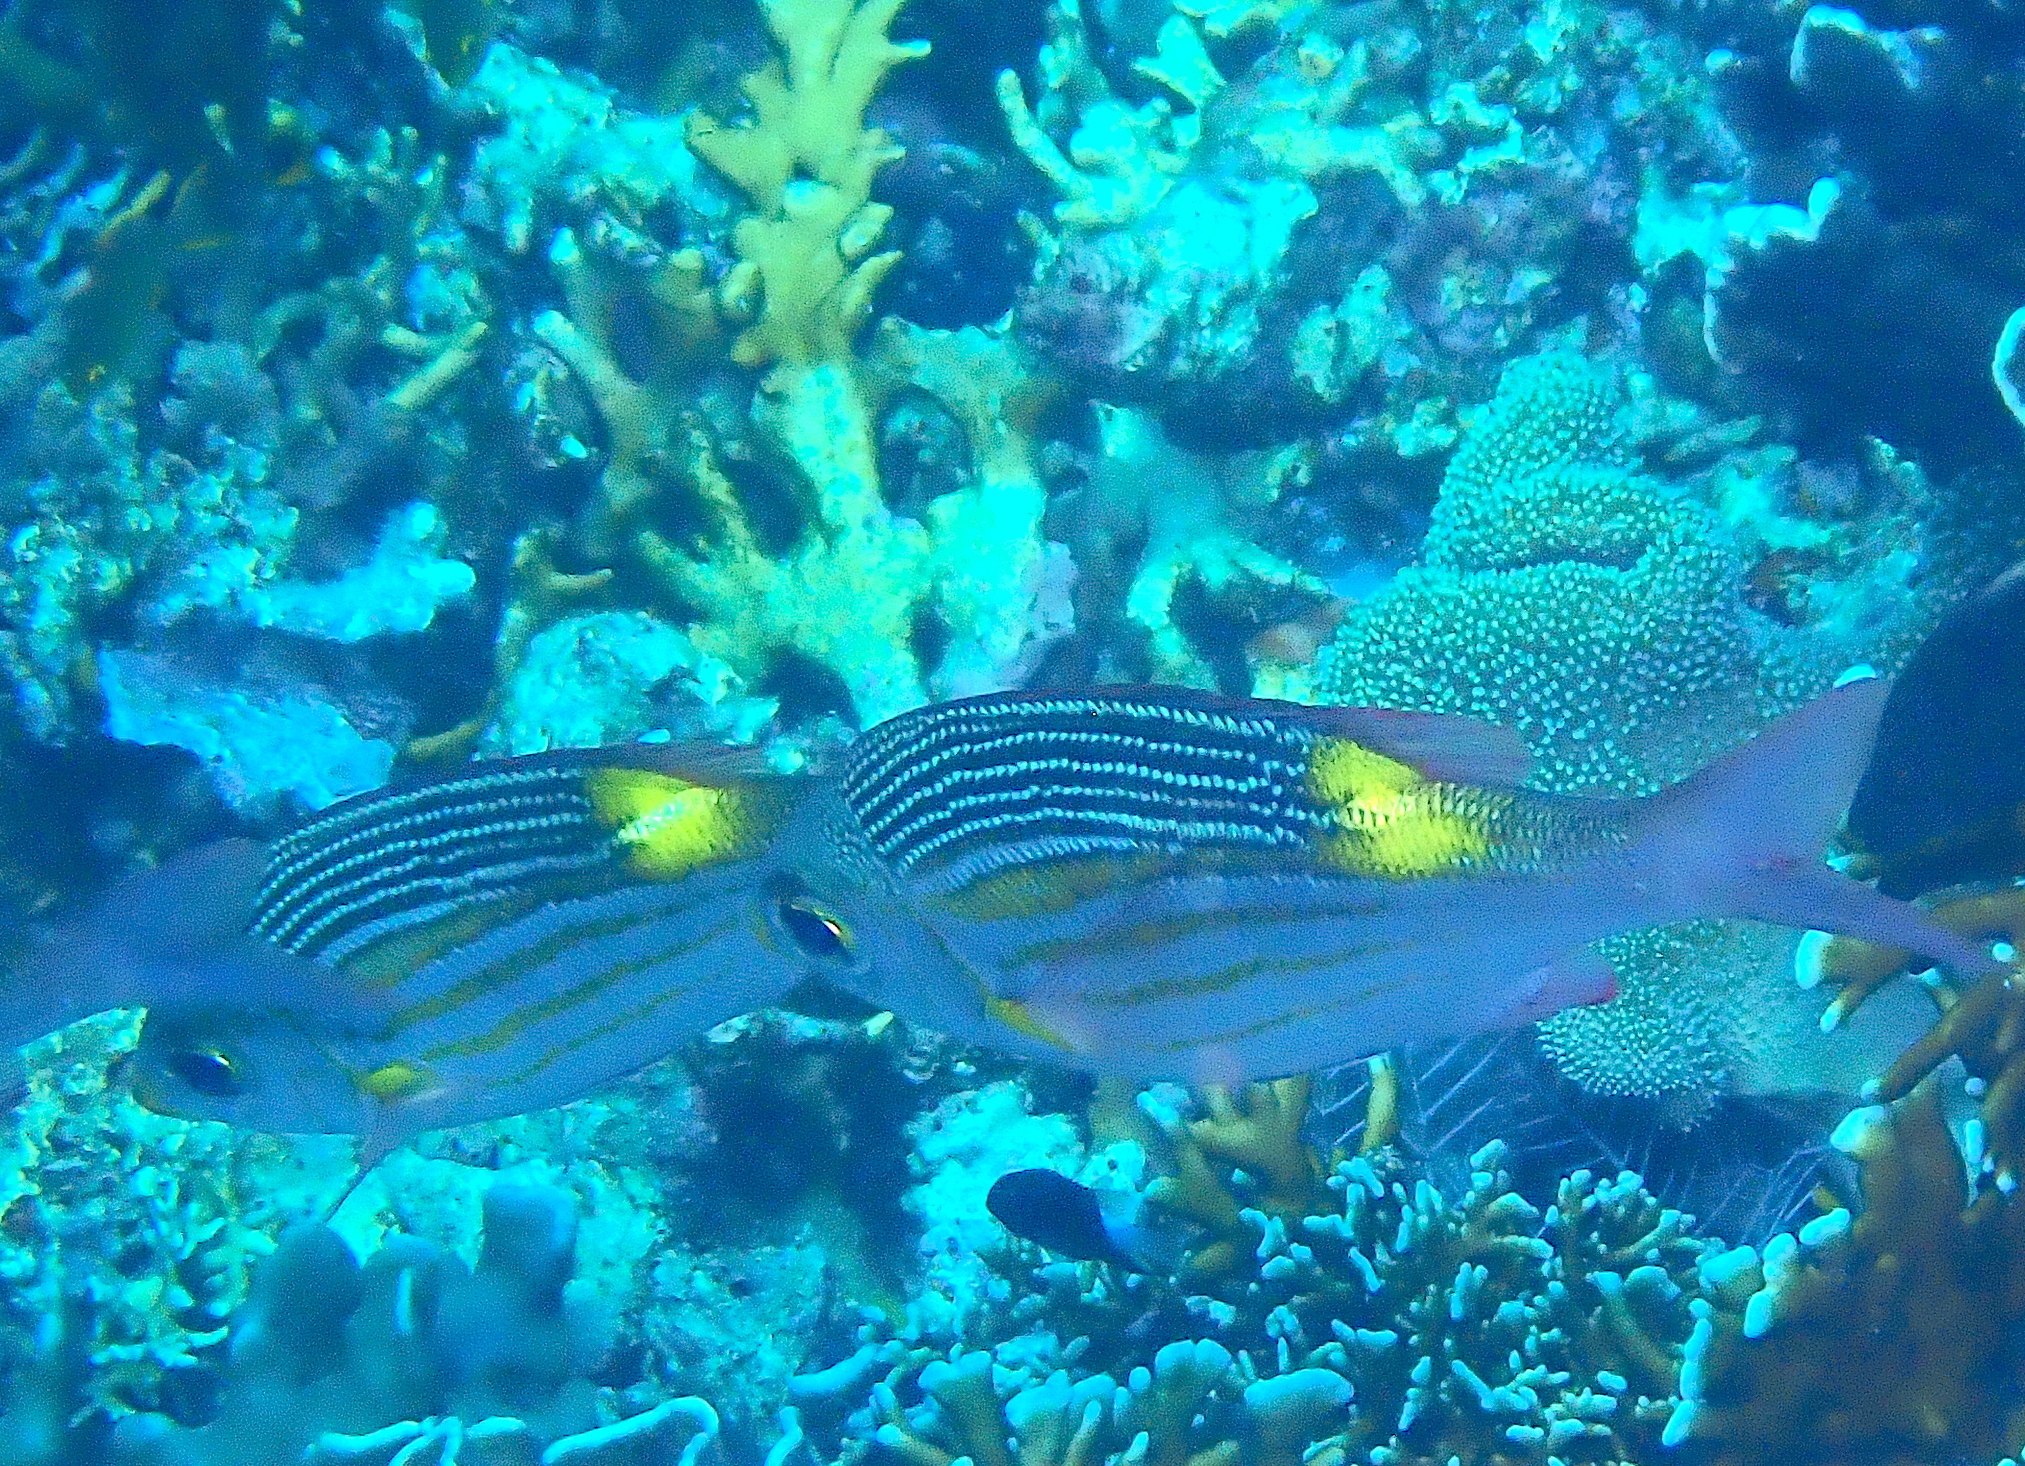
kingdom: Animalia
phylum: Chordata
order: Perciformes
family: Lethrinidae
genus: Gnathodentex
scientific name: Gnathodentex aureolineatus
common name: Gold-lined sea bream
